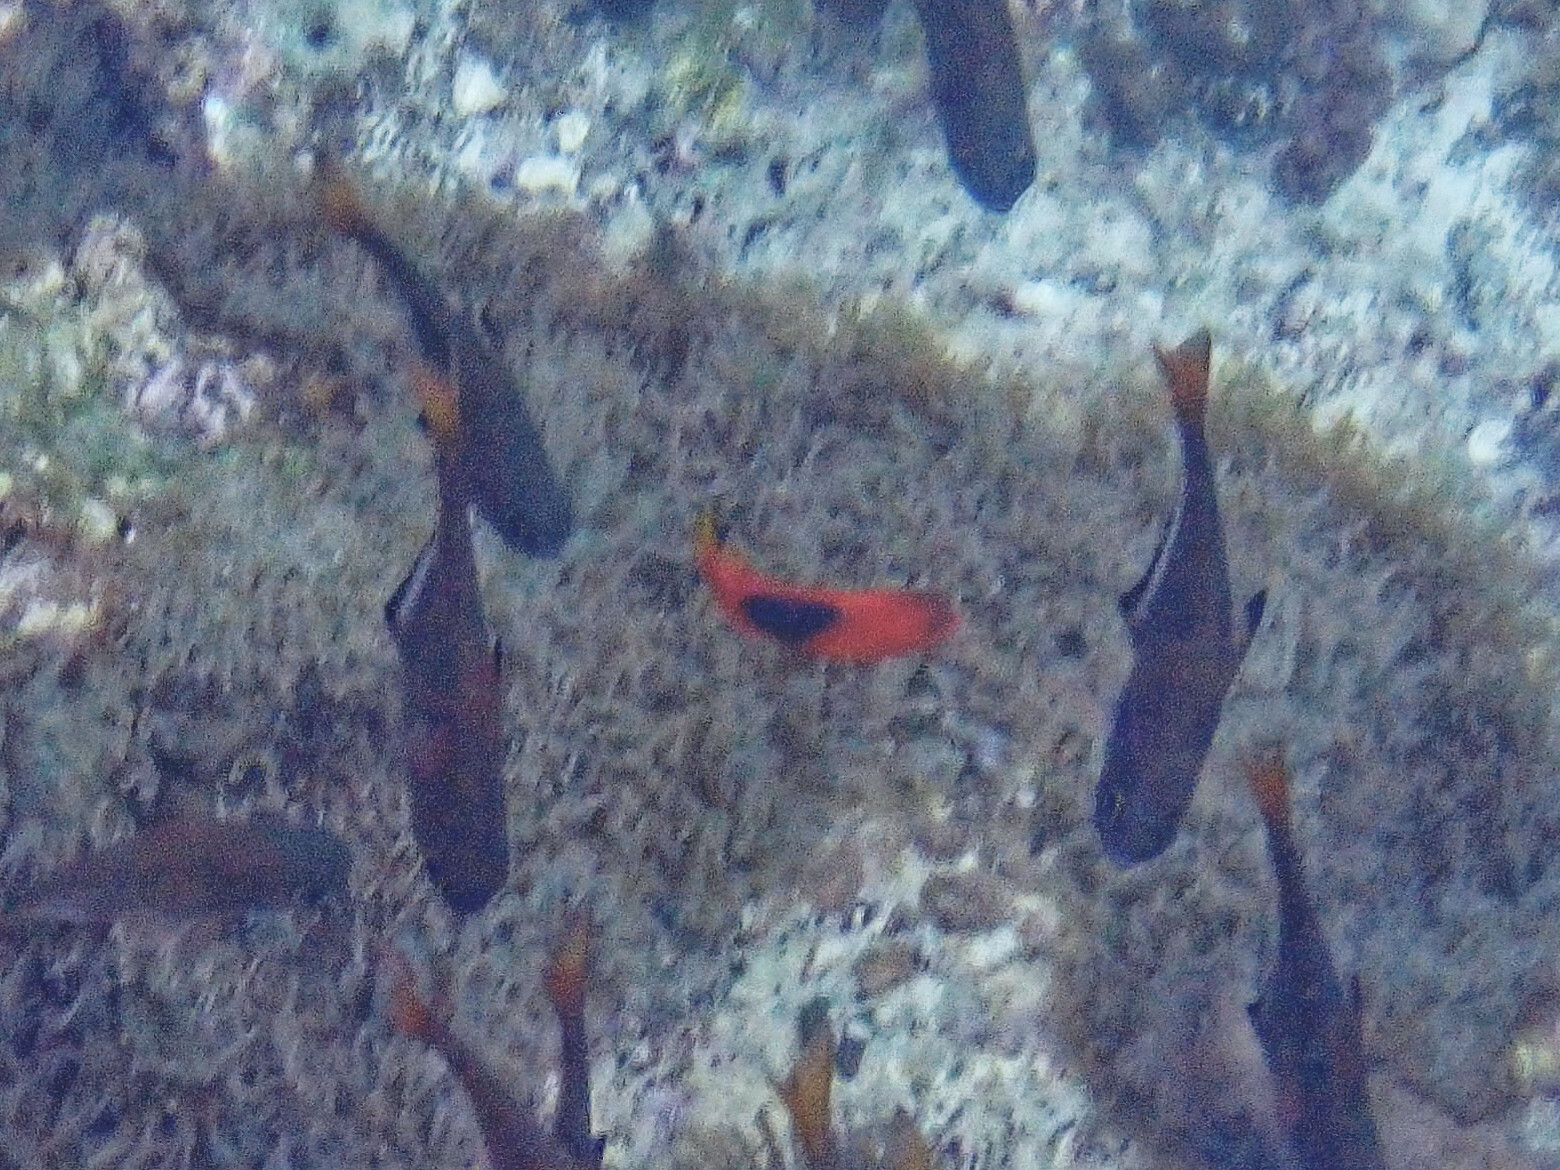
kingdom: Animalia
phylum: Chordata
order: Perciformes
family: Pomacentridae
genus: Amphiprion
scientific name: Amphiprion ephippium
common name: Red saddleback anemonefish
